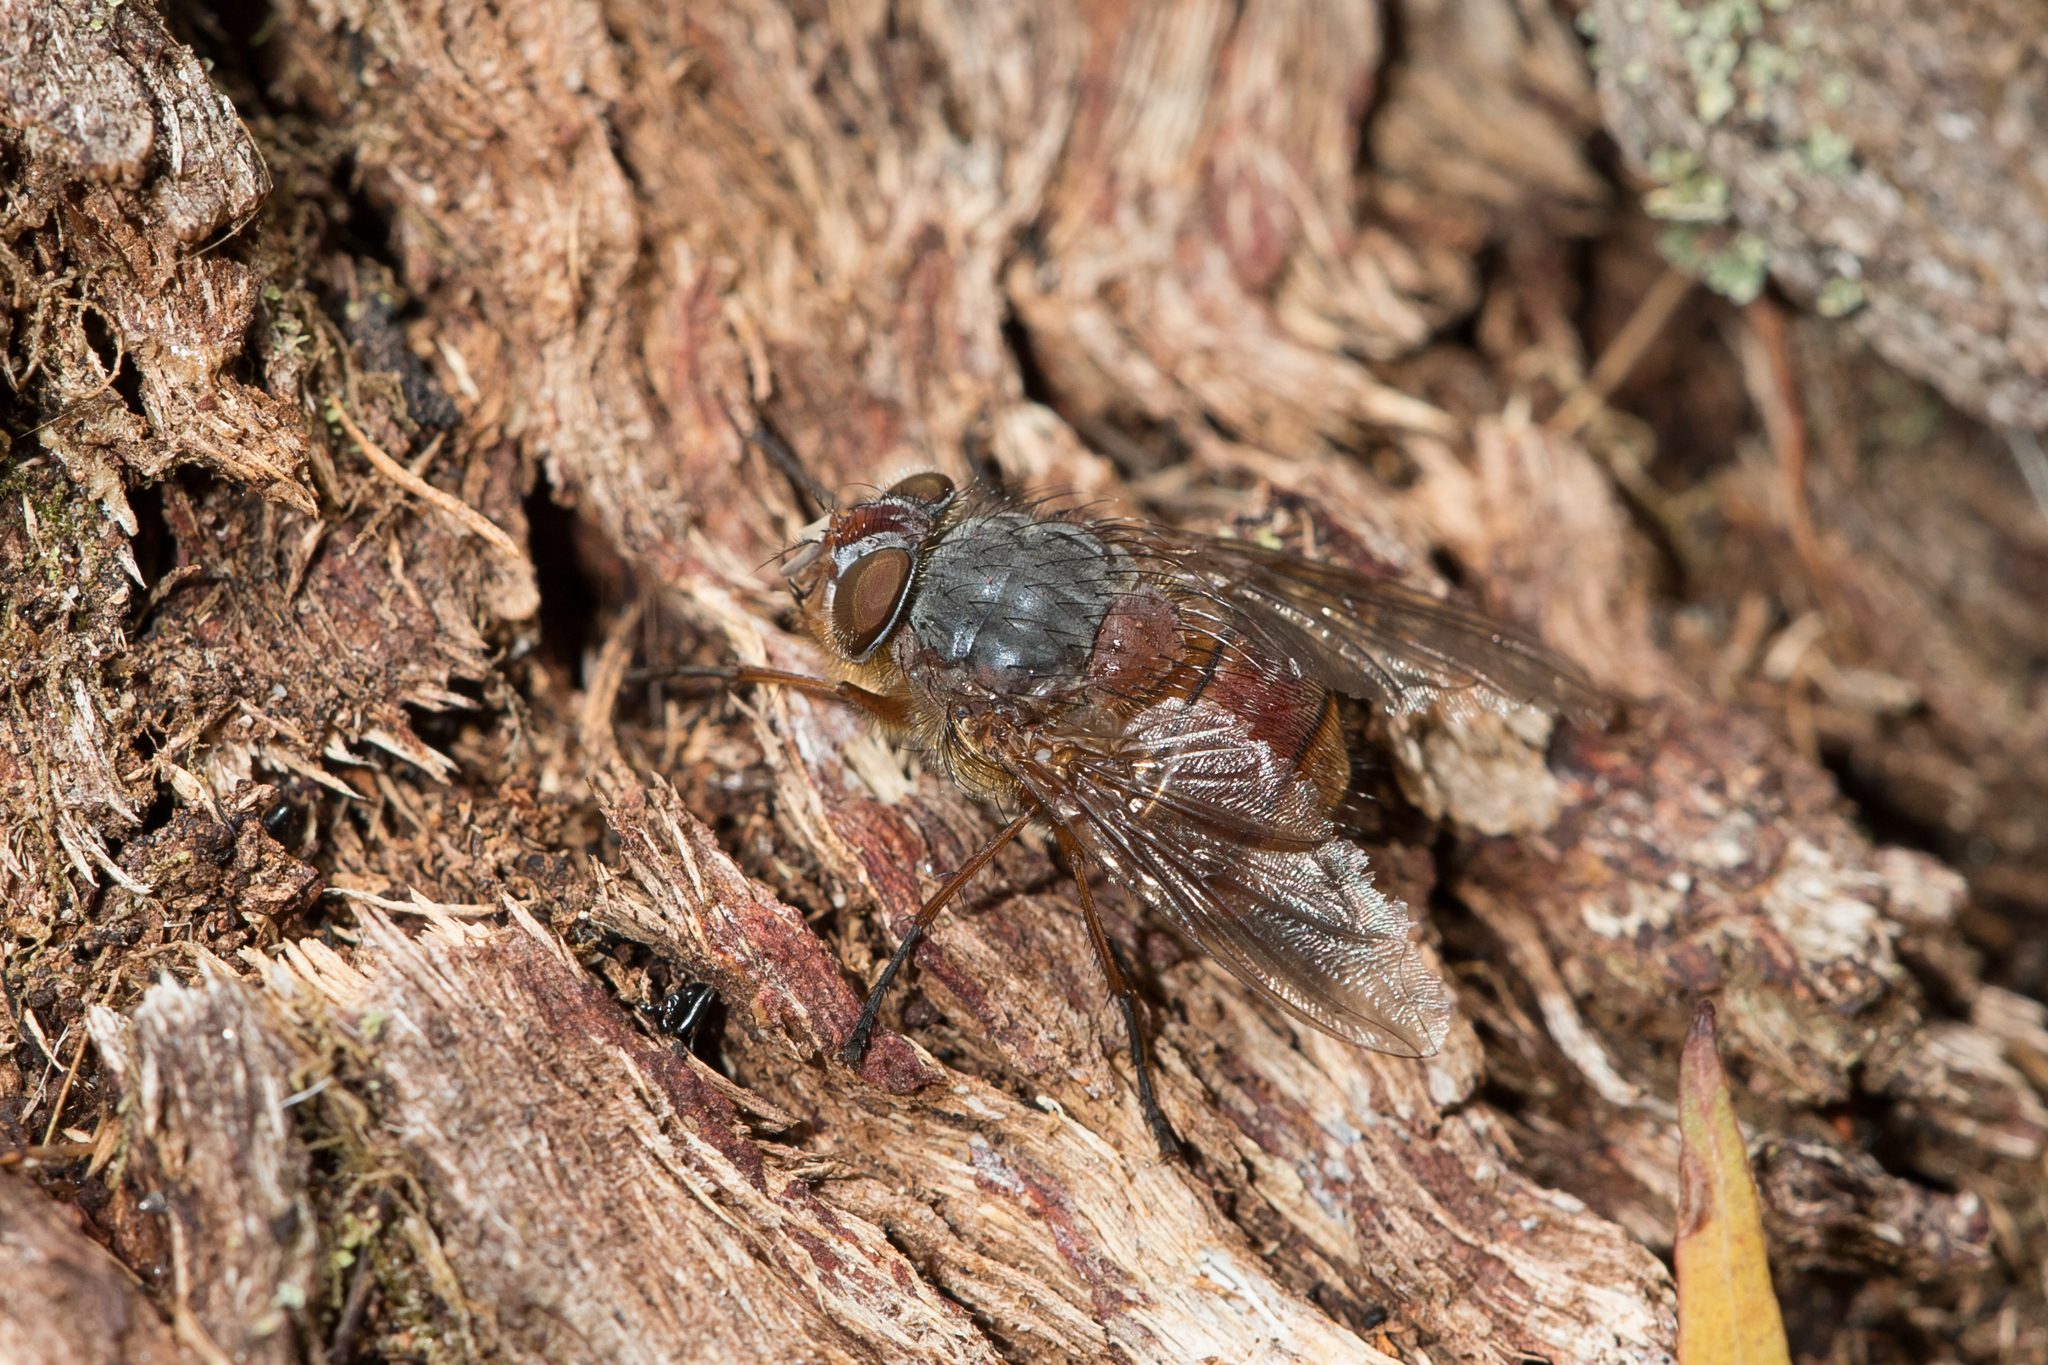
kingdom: Animalia
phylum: Arthropoda
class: Insecta
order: Diptera
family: Calliphoridae
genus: Calliphora
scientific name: Calliphora nigrithorax
